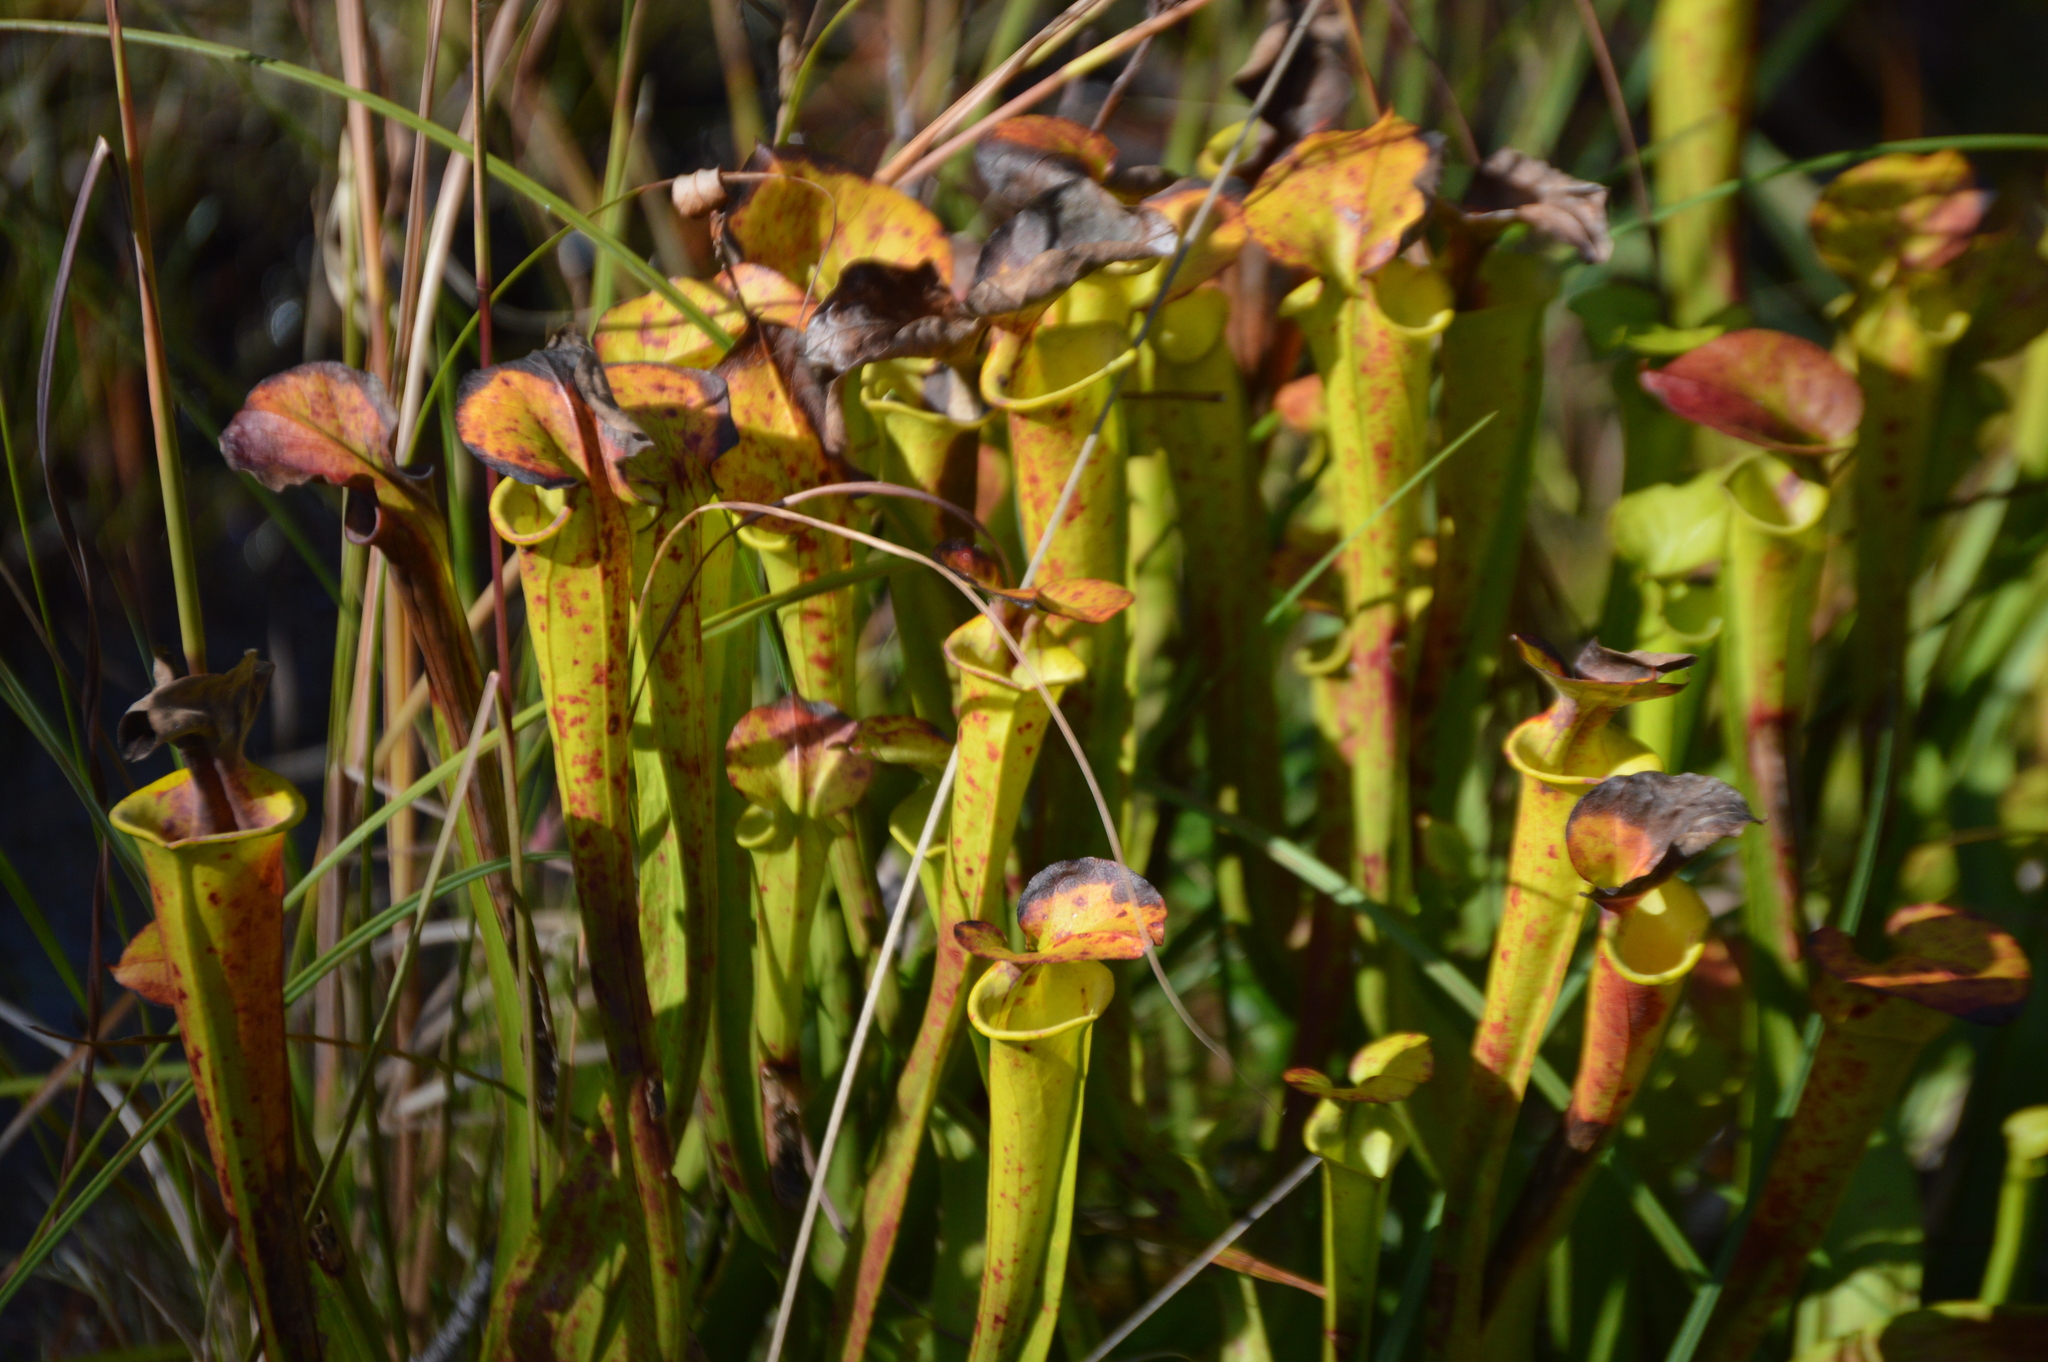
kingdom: Plantae
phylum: Tracheophyta
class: Magnoliopsida
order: Ericales
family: Sarraceniaceae
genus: Sarracenia
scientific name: Sarracenia flava
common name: Trumpets
